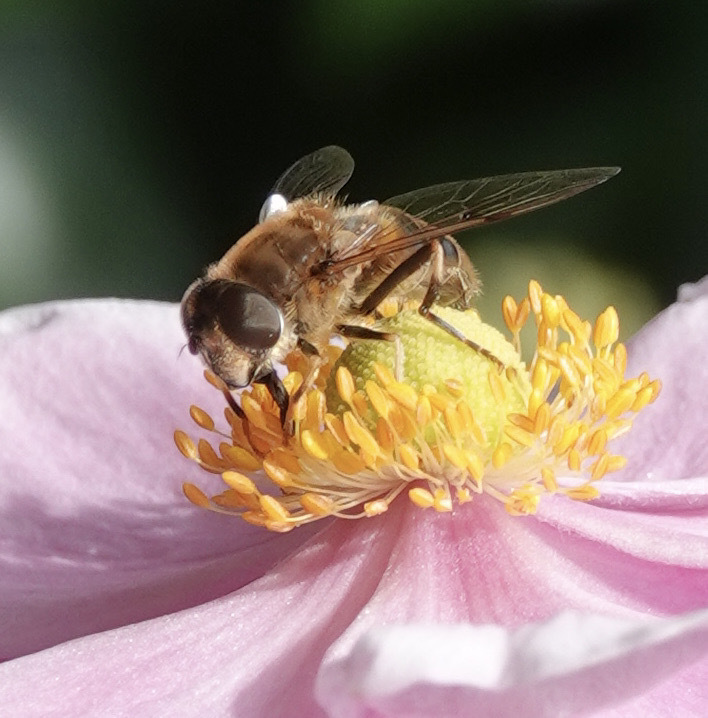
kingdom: Animalia
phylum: Arthropoda
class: Insecta
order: Diptera
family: Syrphidae
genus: Eristalis
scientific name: Eristalis pertinax
